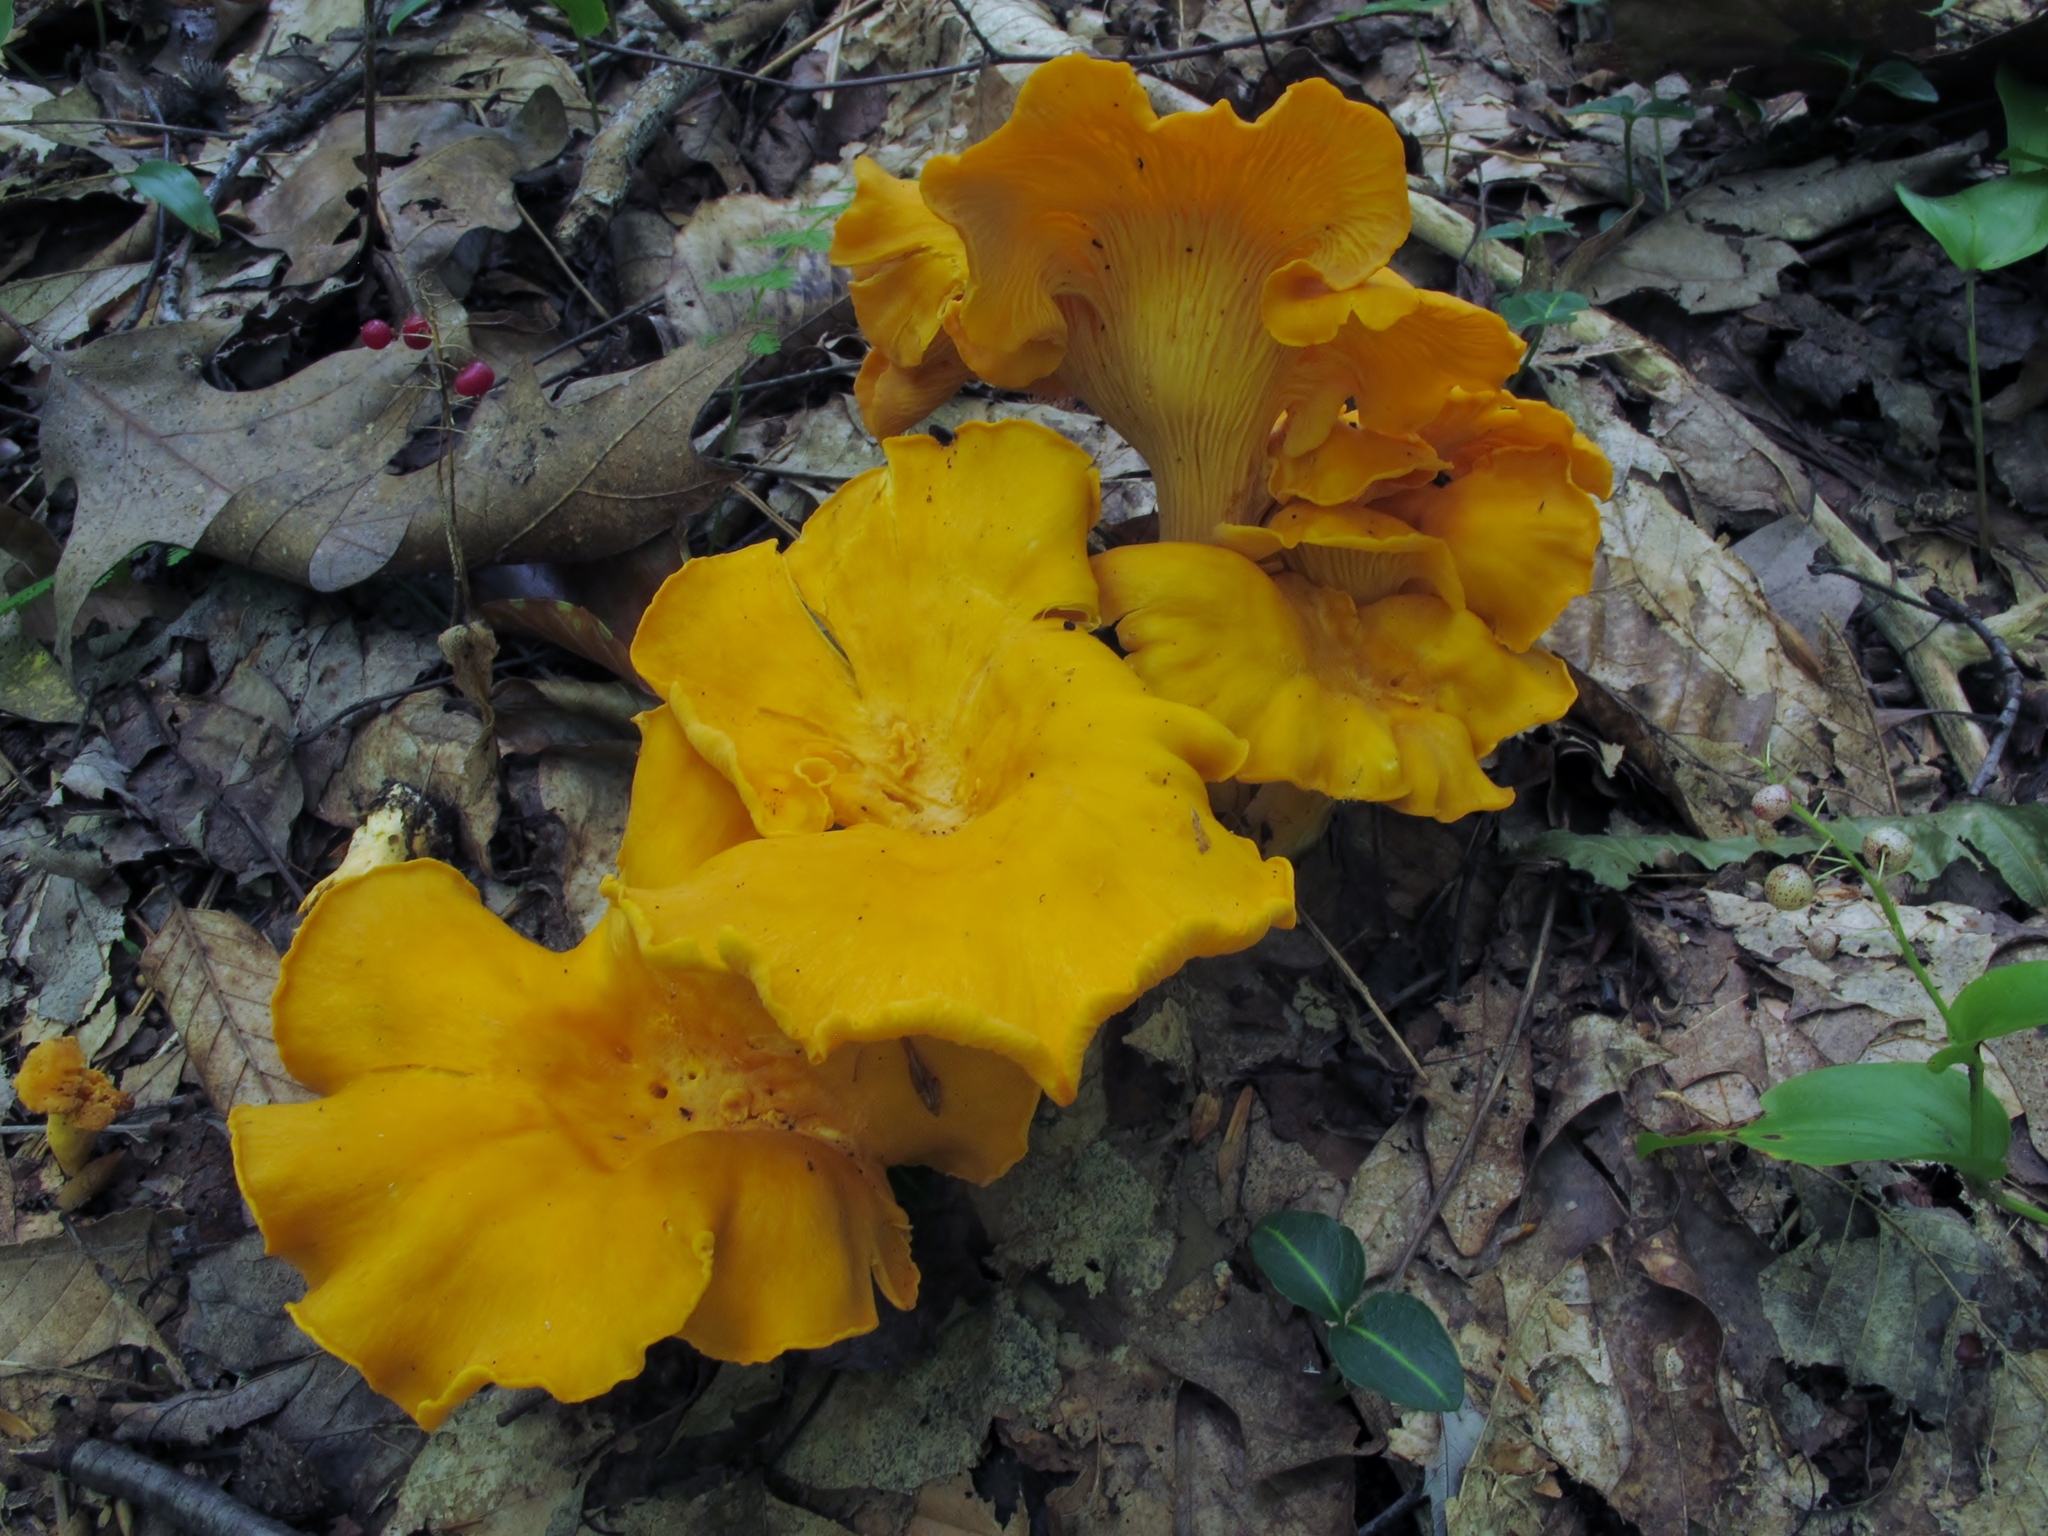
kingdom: Fungi
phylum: Basidiomycota
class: Agaricomycetes
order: Cantharellales
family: Hydnaceae
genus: Cantharellus
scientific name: Cantharellus lateritius
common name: Smooth chanterelle
